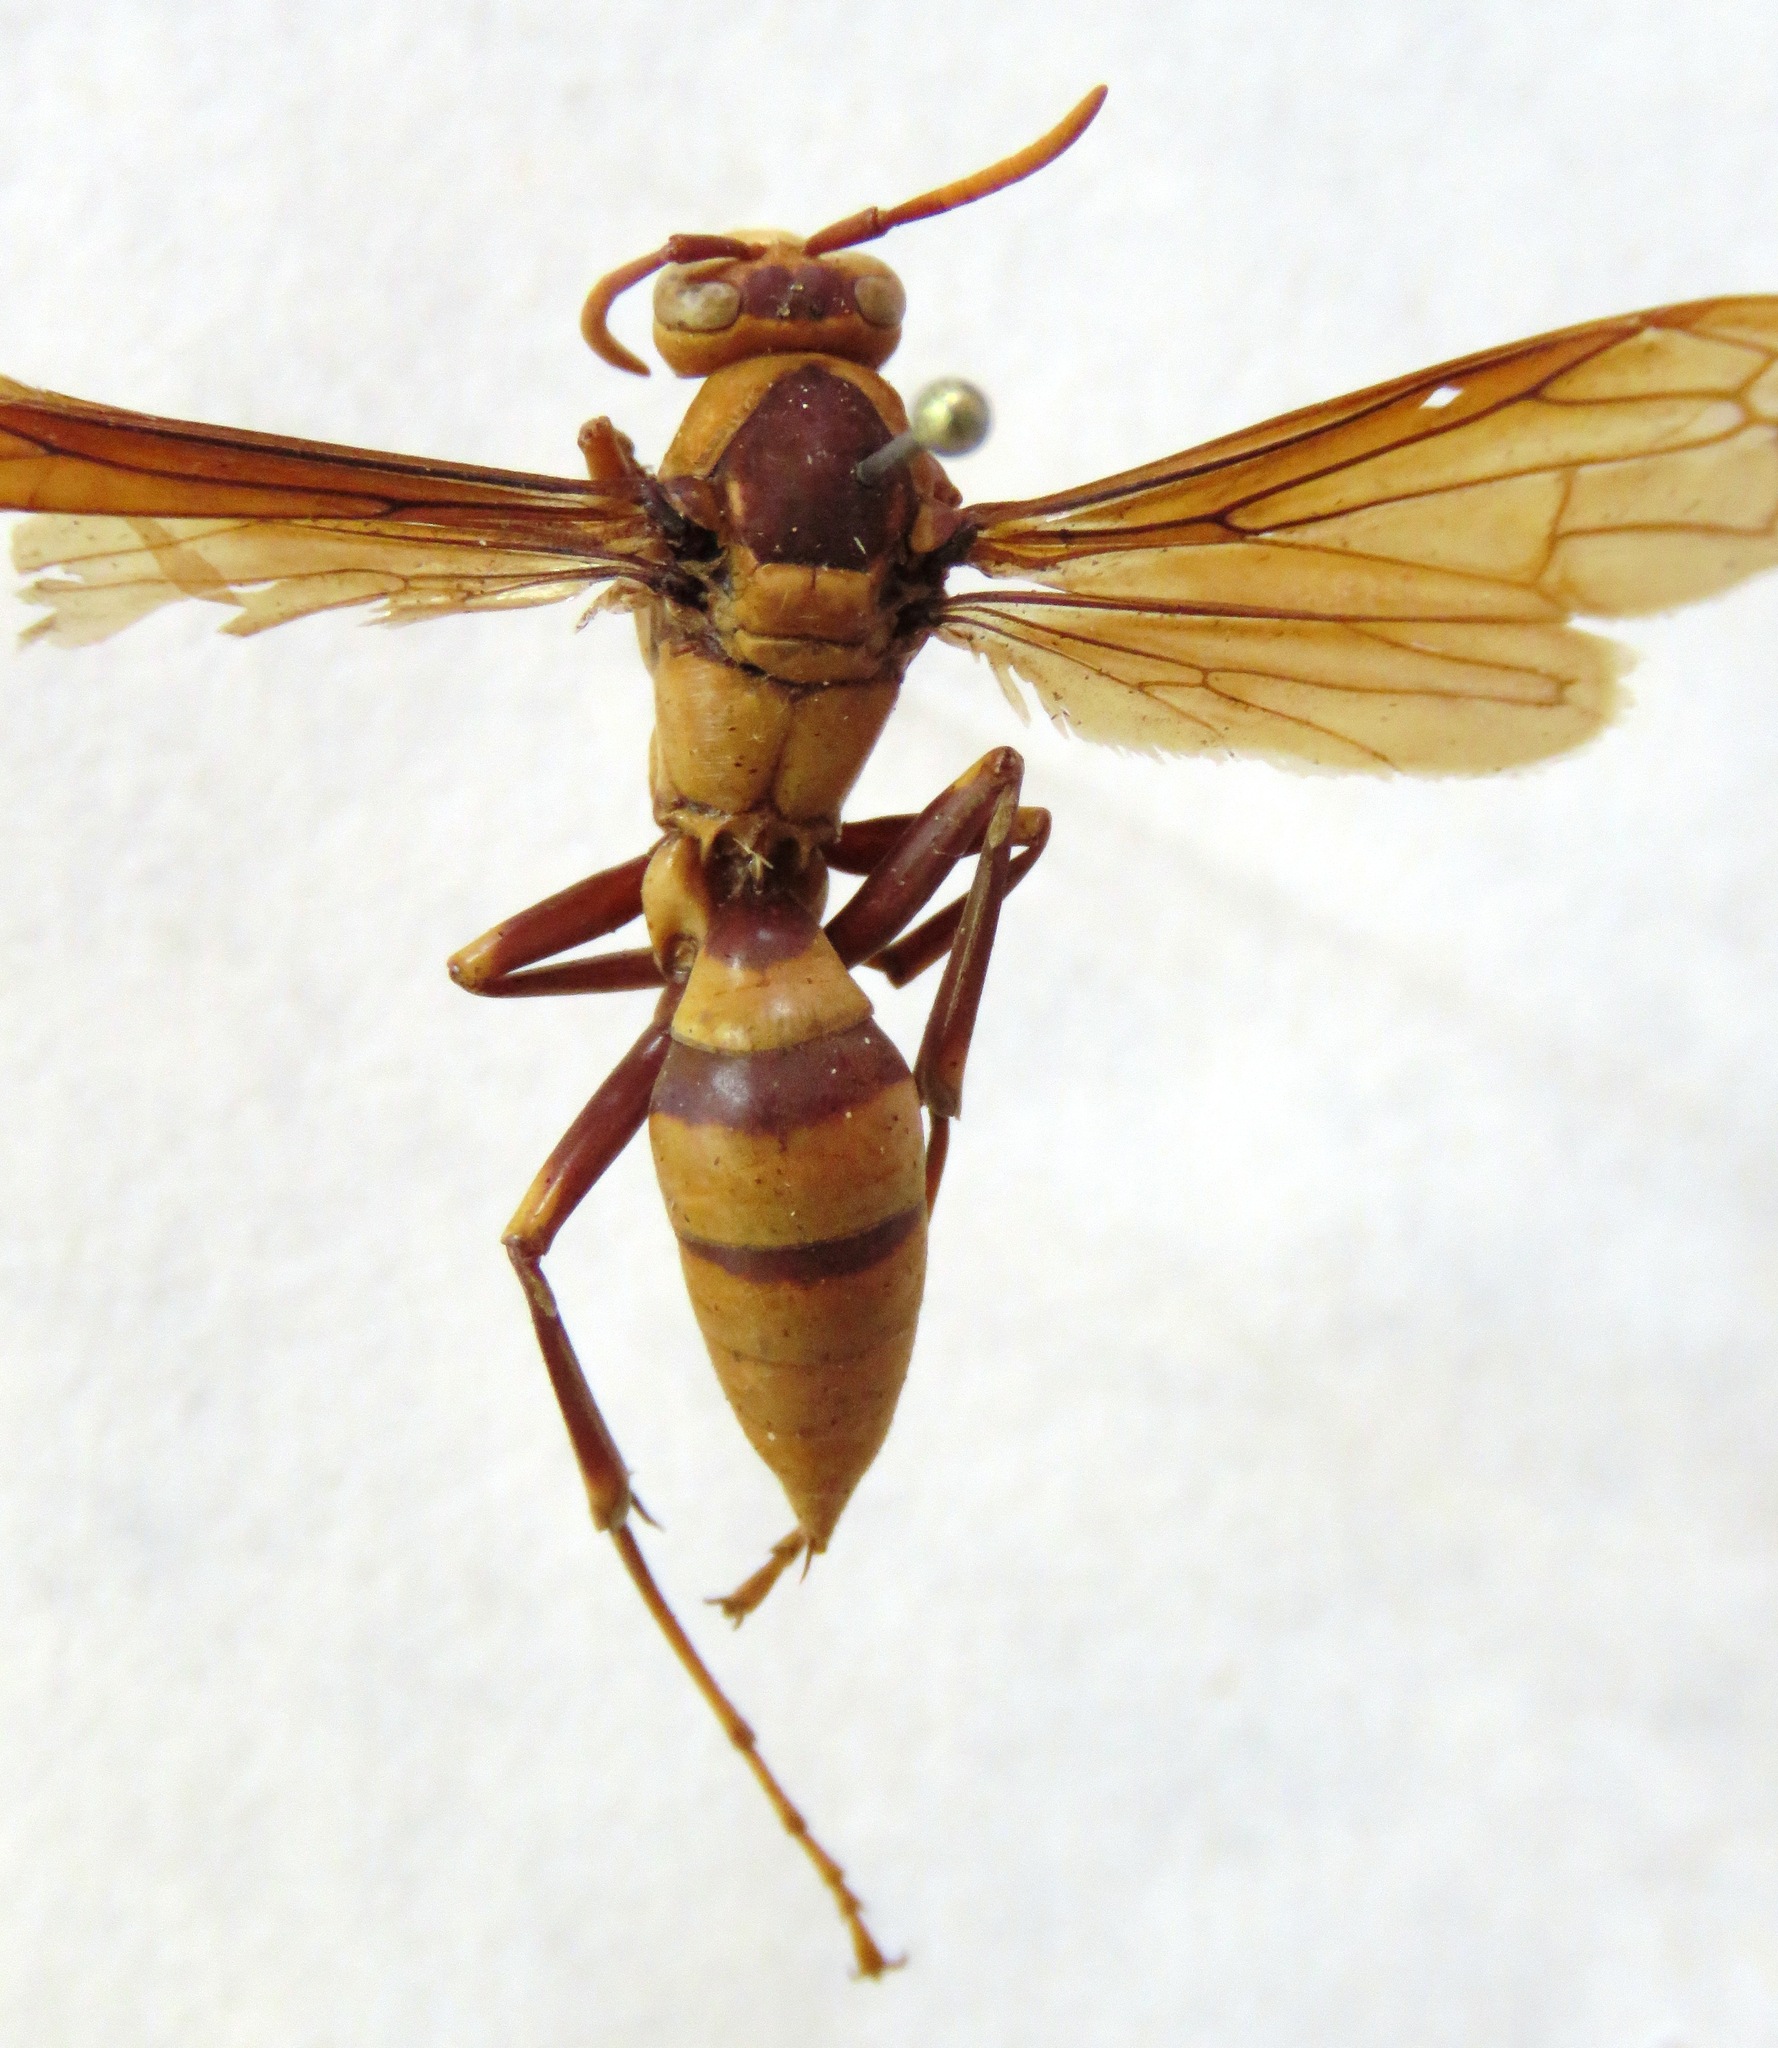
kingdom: Animalia
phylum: Arthropoda
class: Insecta
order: Hymenoptera
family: Eumenidae
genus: Polistes
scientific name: Polistes carnifex
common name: Paper wasp
